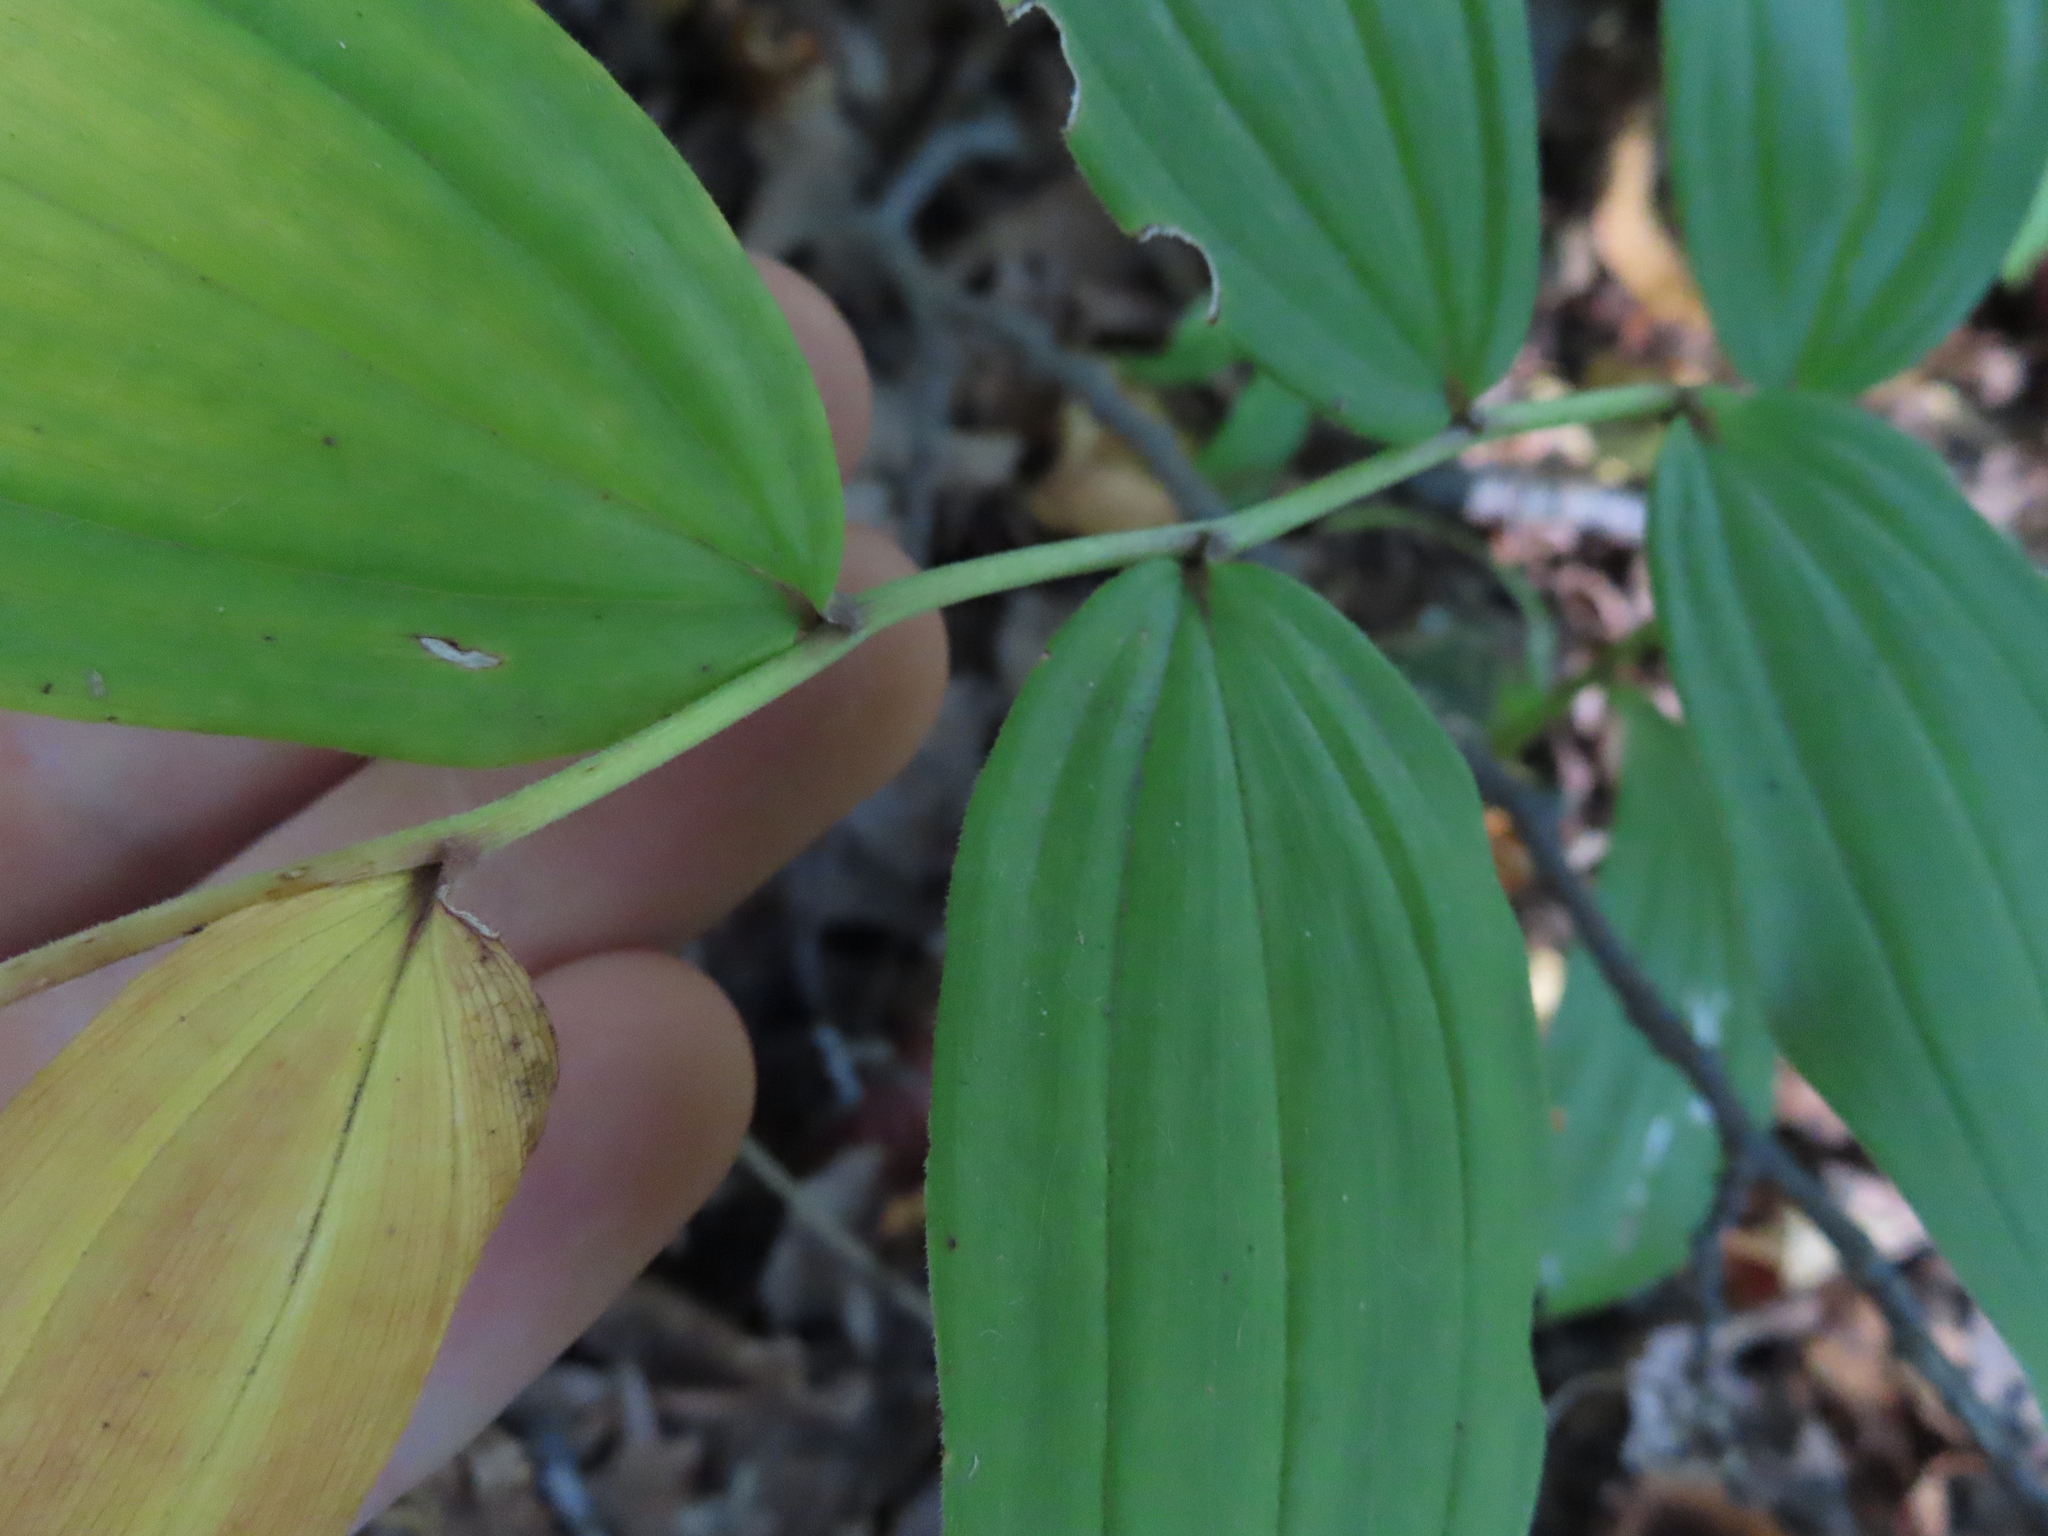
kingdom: Plantae
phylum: Tracheophyta
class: Liliopsida
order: Asparagales
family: Asparagaceae
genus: Maianthemum
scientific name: Maianthemum racemosum
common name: False spikenard
